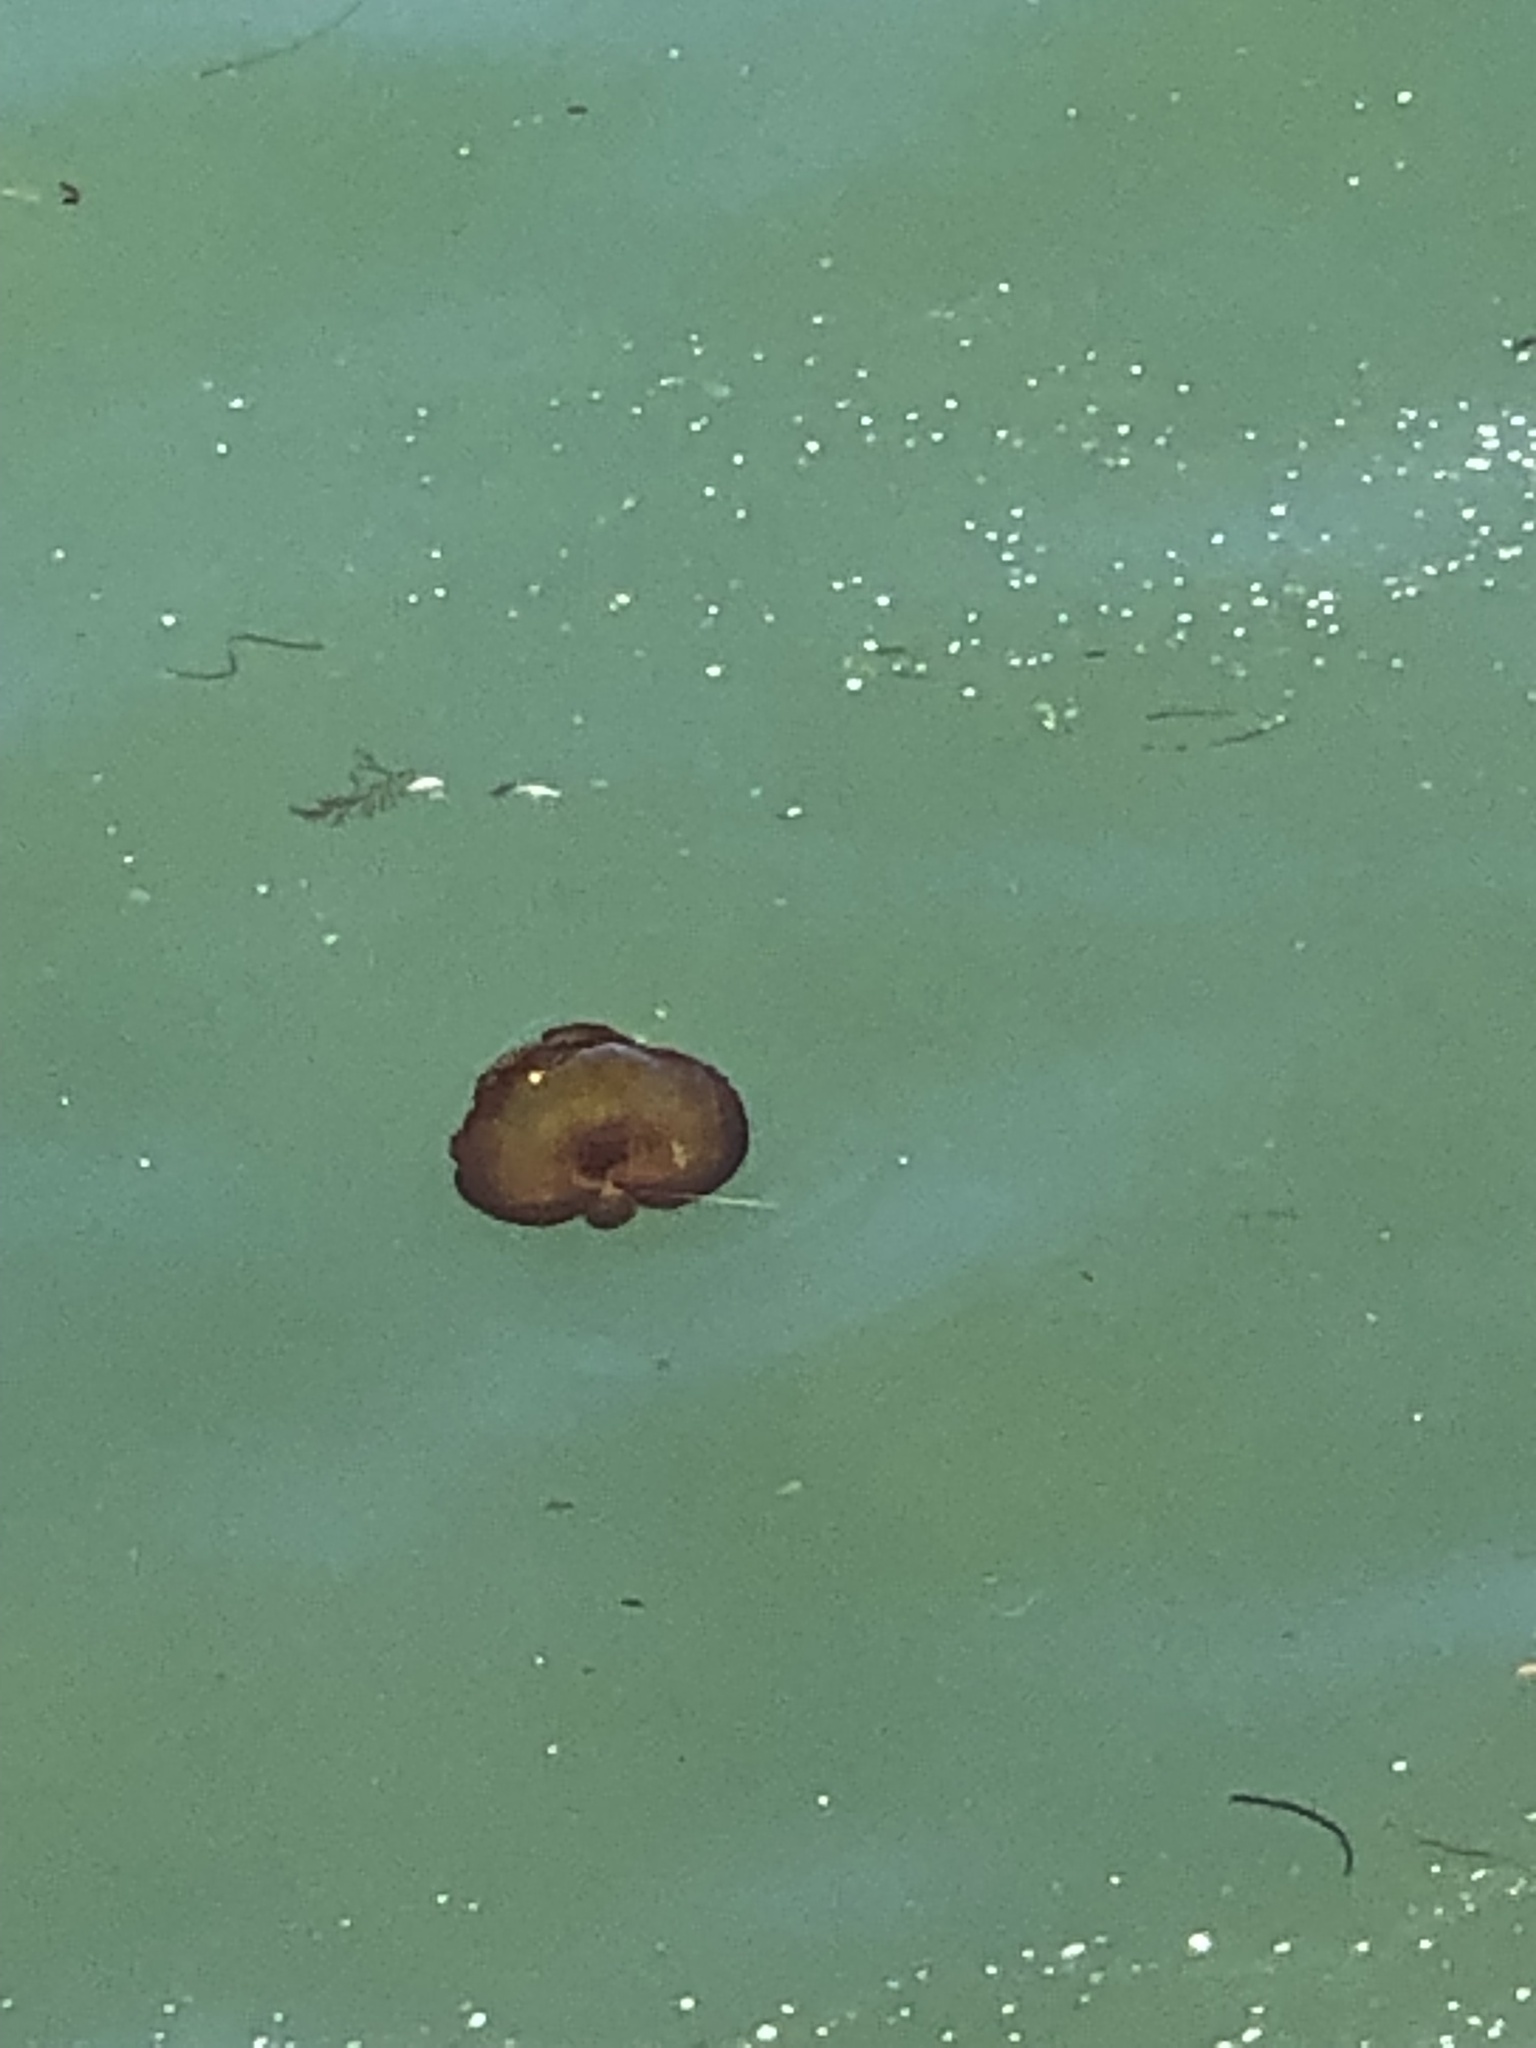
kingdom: Animalia
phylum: Cnidaria
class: Scyphozoa
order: Semaeostomeae
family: Pelagiidae
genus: Chrysaora
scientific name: Chrysaora fuscescens
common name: Sea nettle
